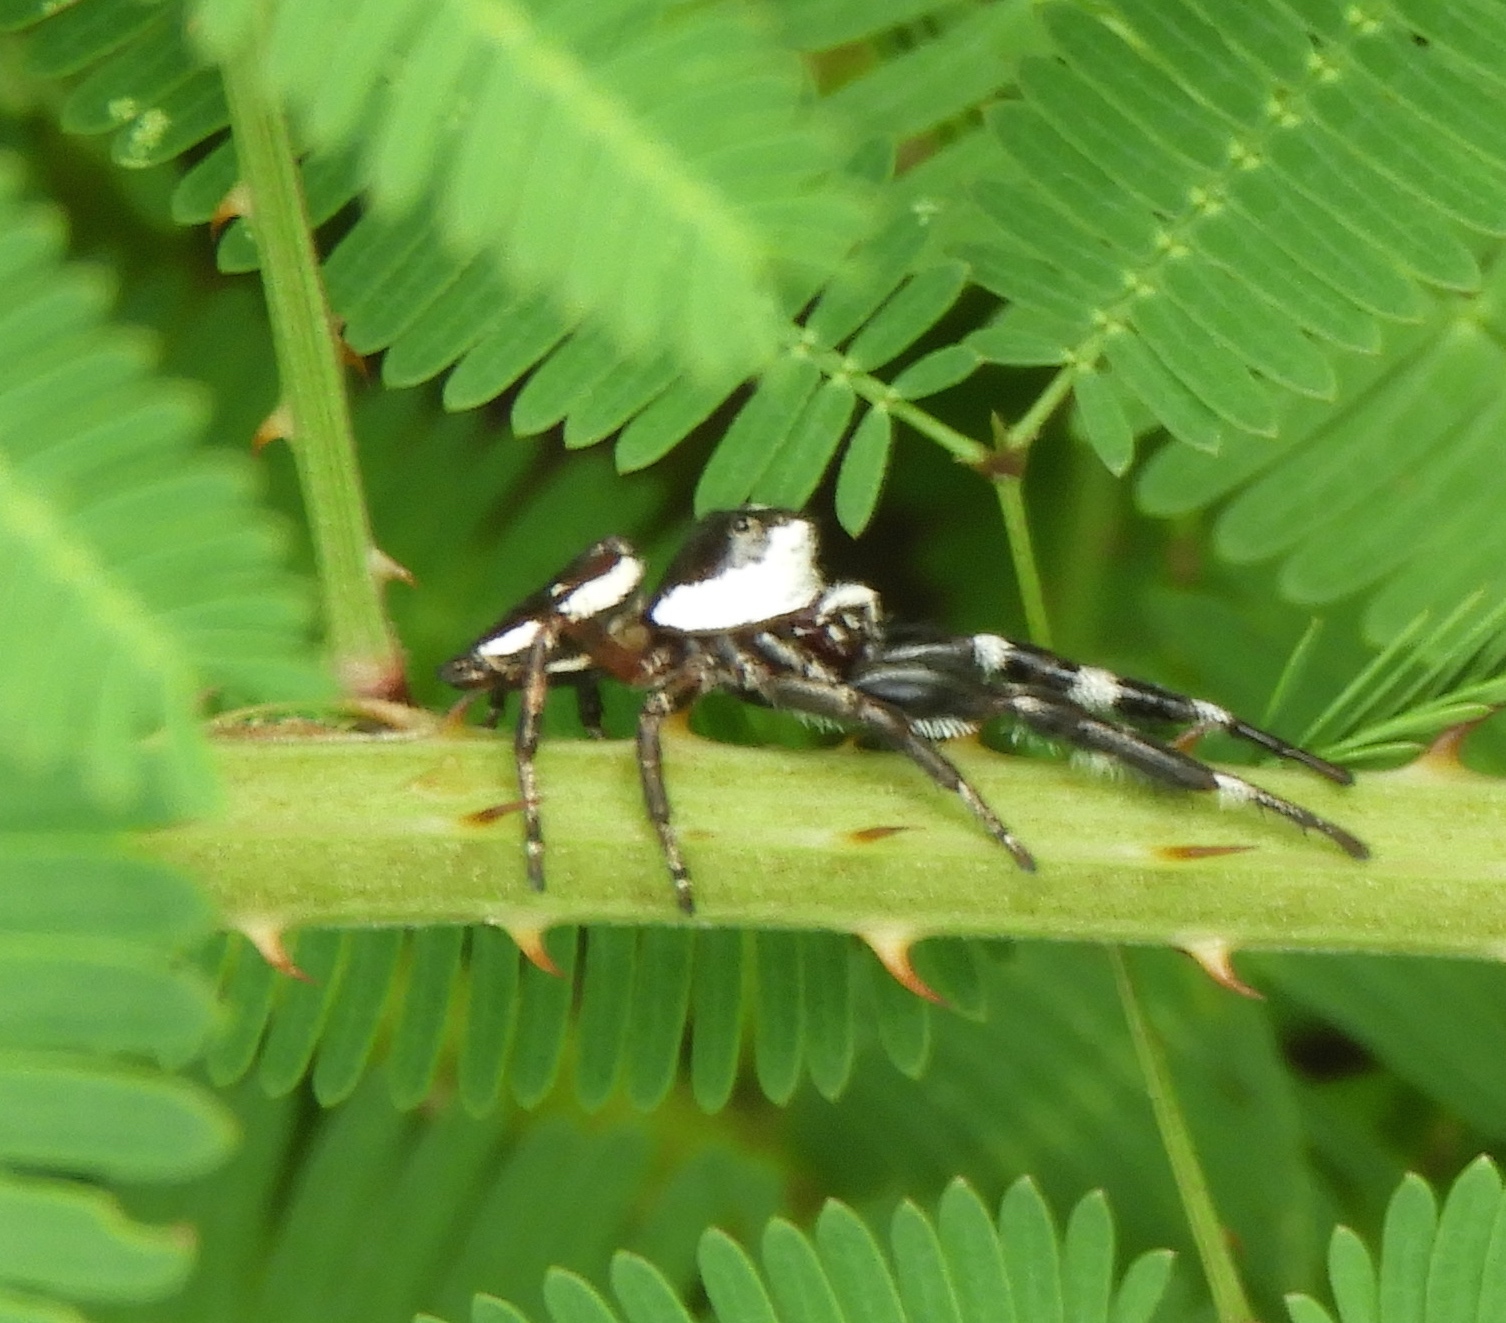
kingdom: Animalia
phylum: Arthropoda
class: Arachnida
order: Araneae
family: Salticidae
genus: Dendryphantes
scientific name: Dendryphantes
